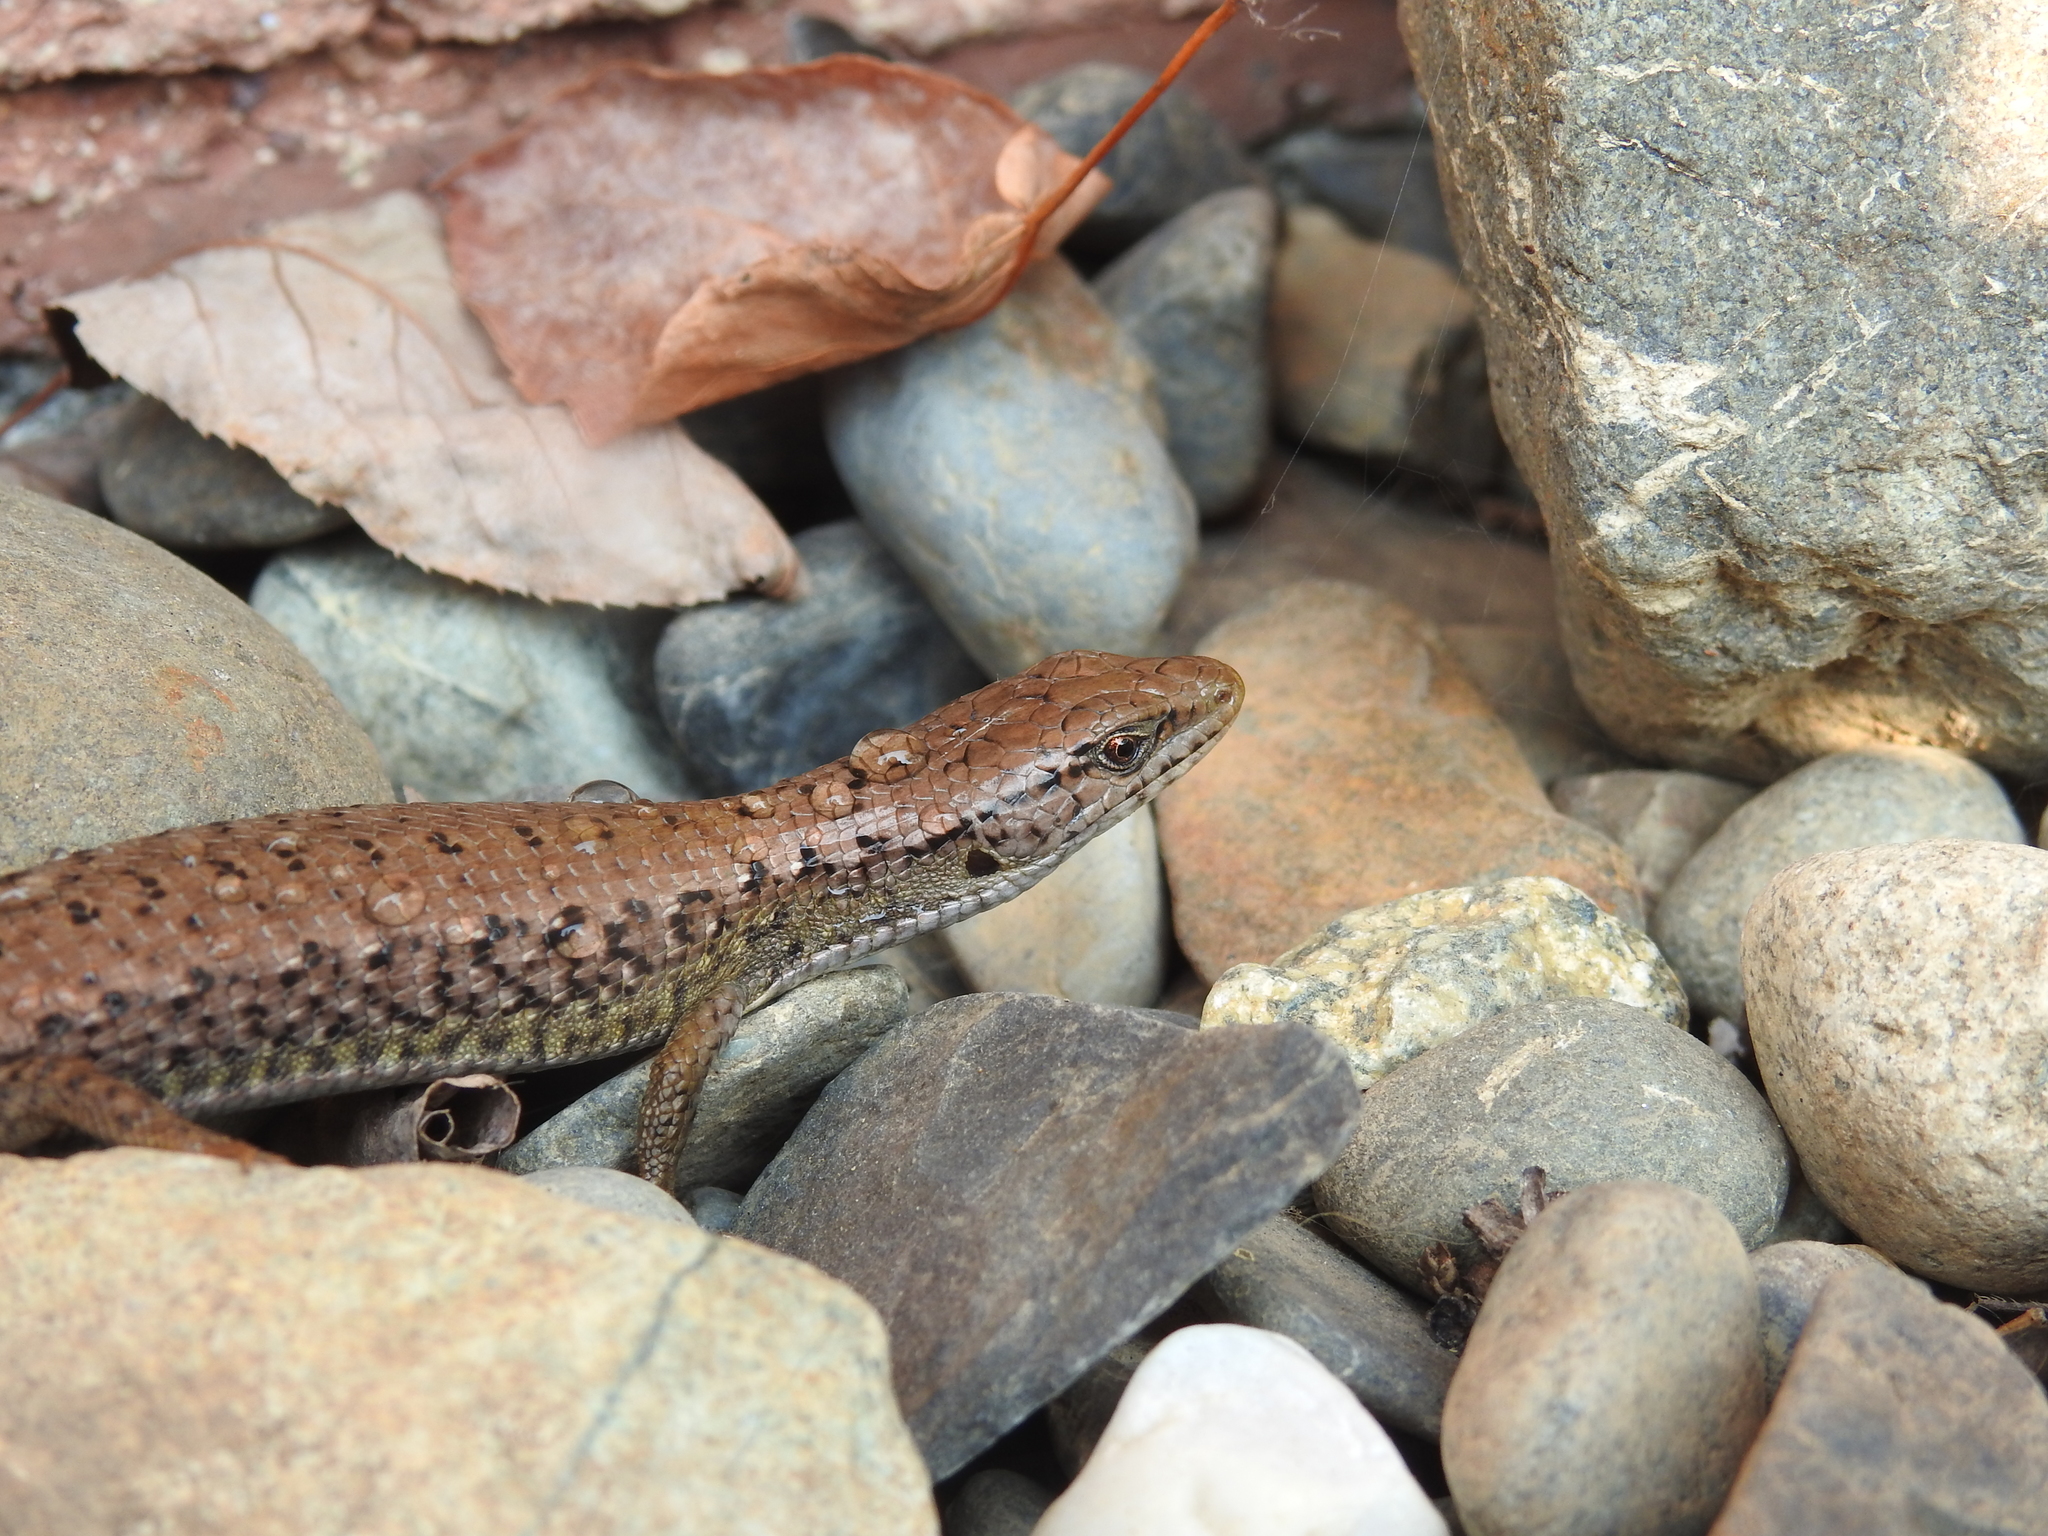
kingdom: Animalia
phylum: Chordata
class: Squamata
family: Anguidae
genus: Elgaria
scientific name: Elgaria coerulea
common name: Northern alligator lizard
